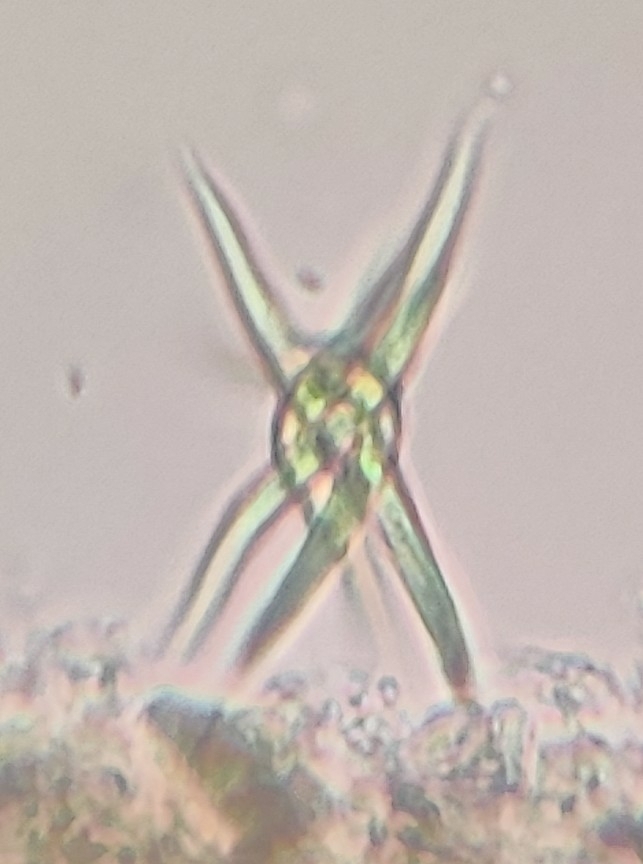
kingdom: Plantae
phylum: Chlorophyta
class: Chlorophyceae
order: Sphaeropleales
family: Selenastraceae
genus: Ankistrodesmus
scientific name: Ankistrodesmus spiralis
